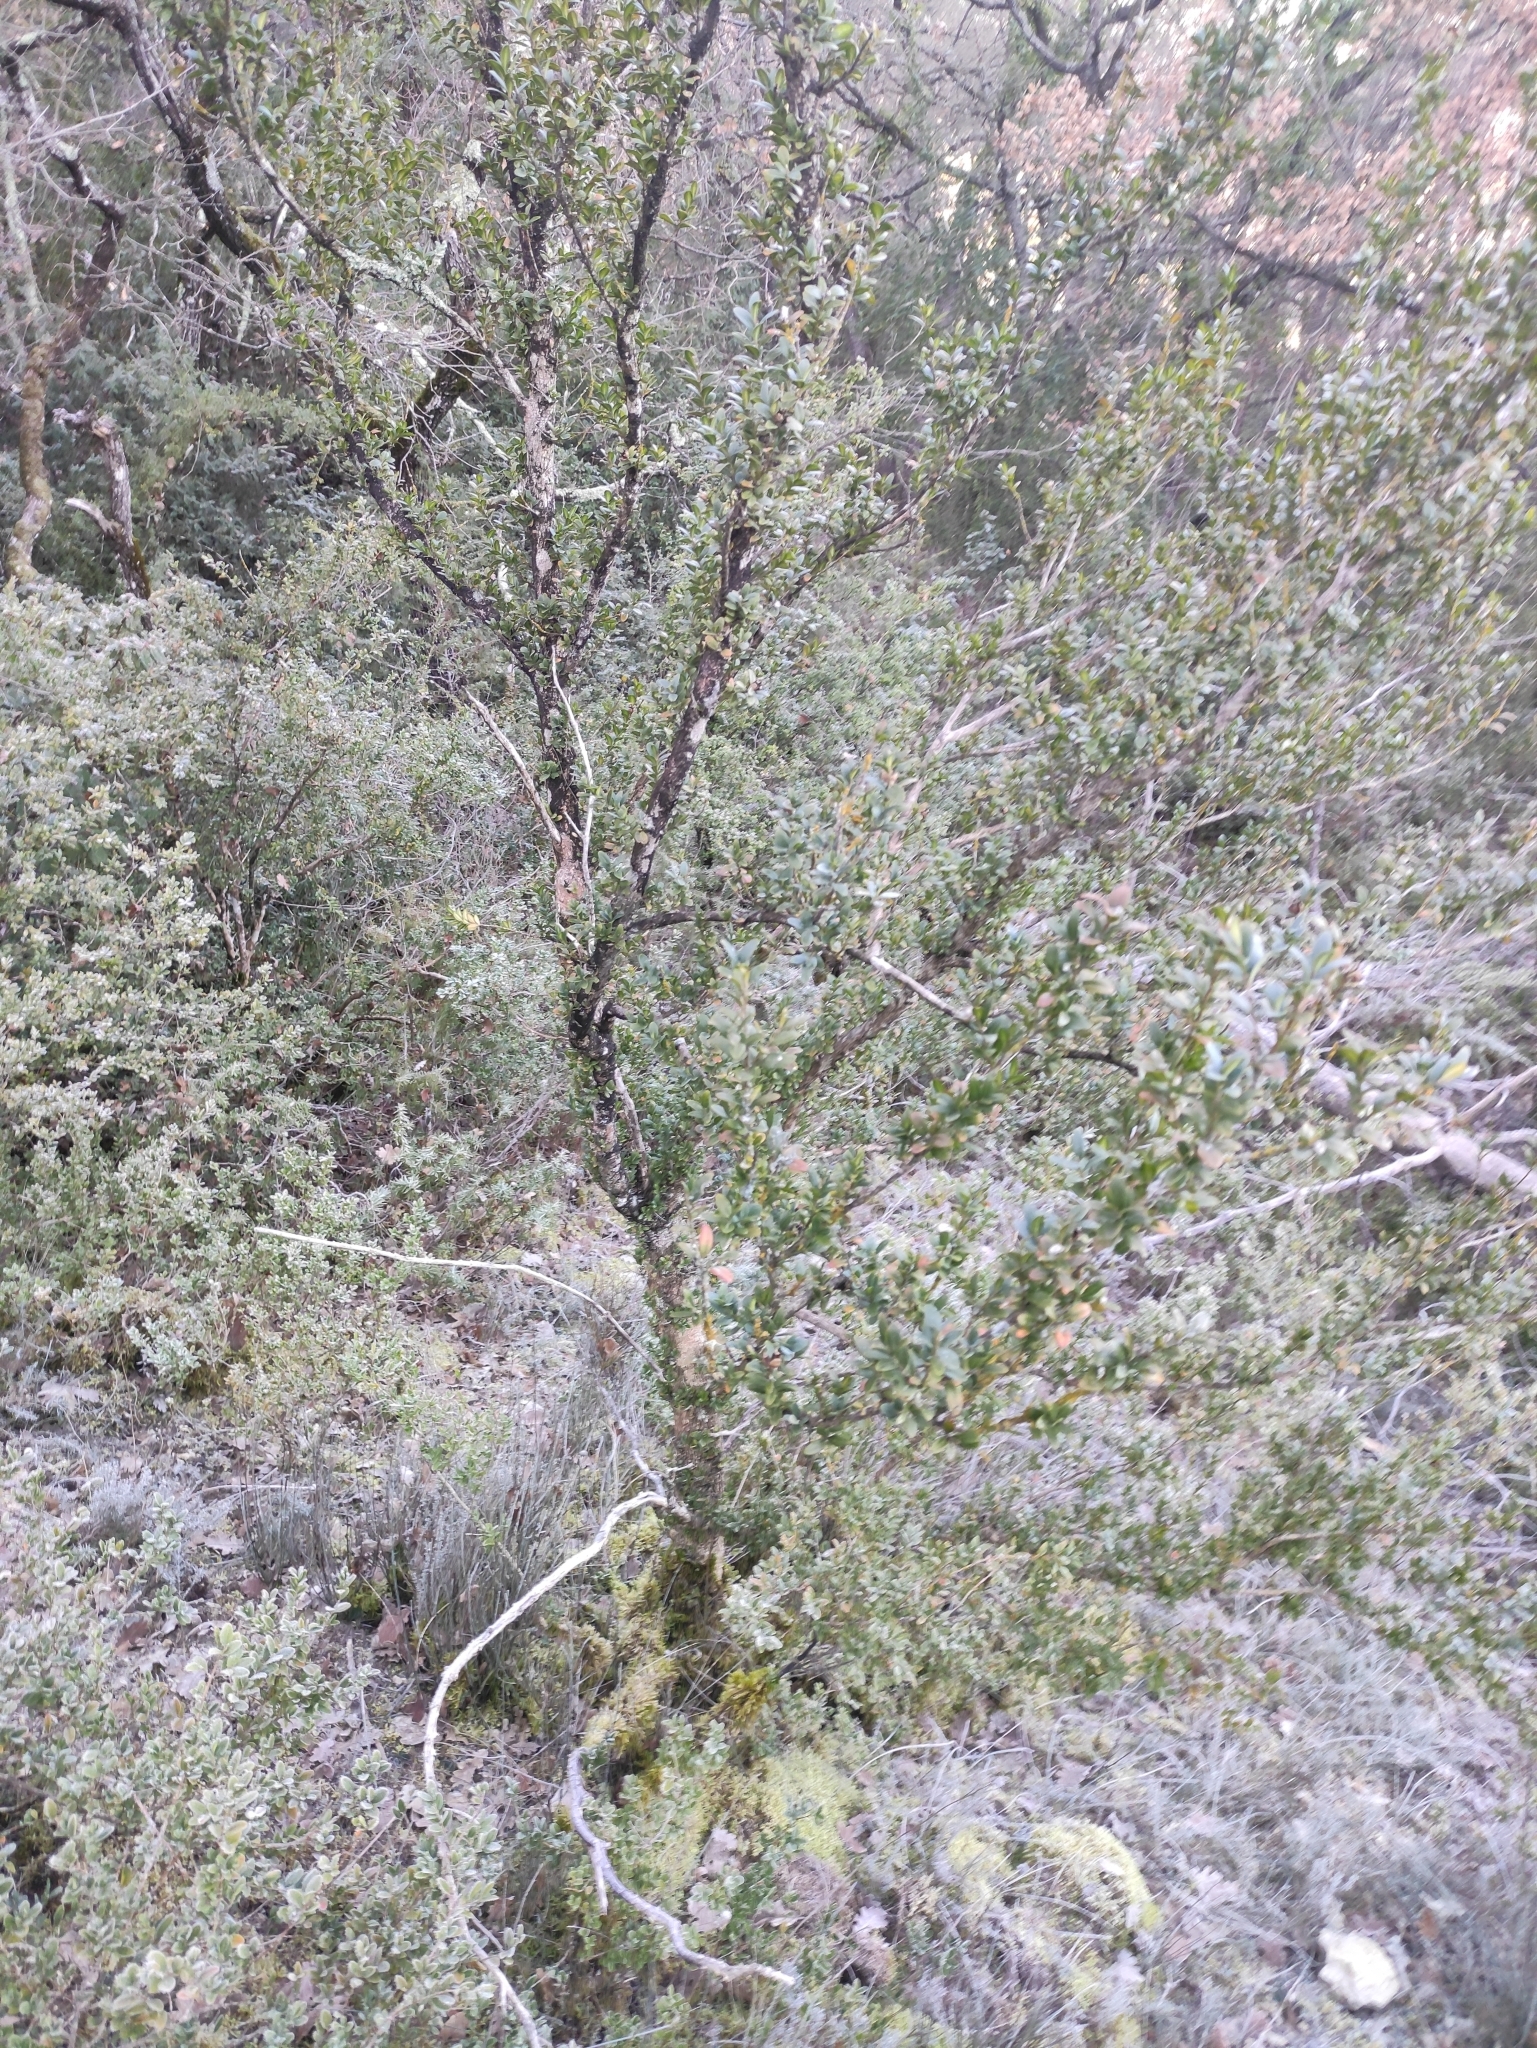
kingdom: Plantae
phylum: Tracheophyta
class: Magnoliopsida
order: Buxales
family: Buxaceae
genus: Buxus
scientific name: Buxus sempervirens
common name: Box
